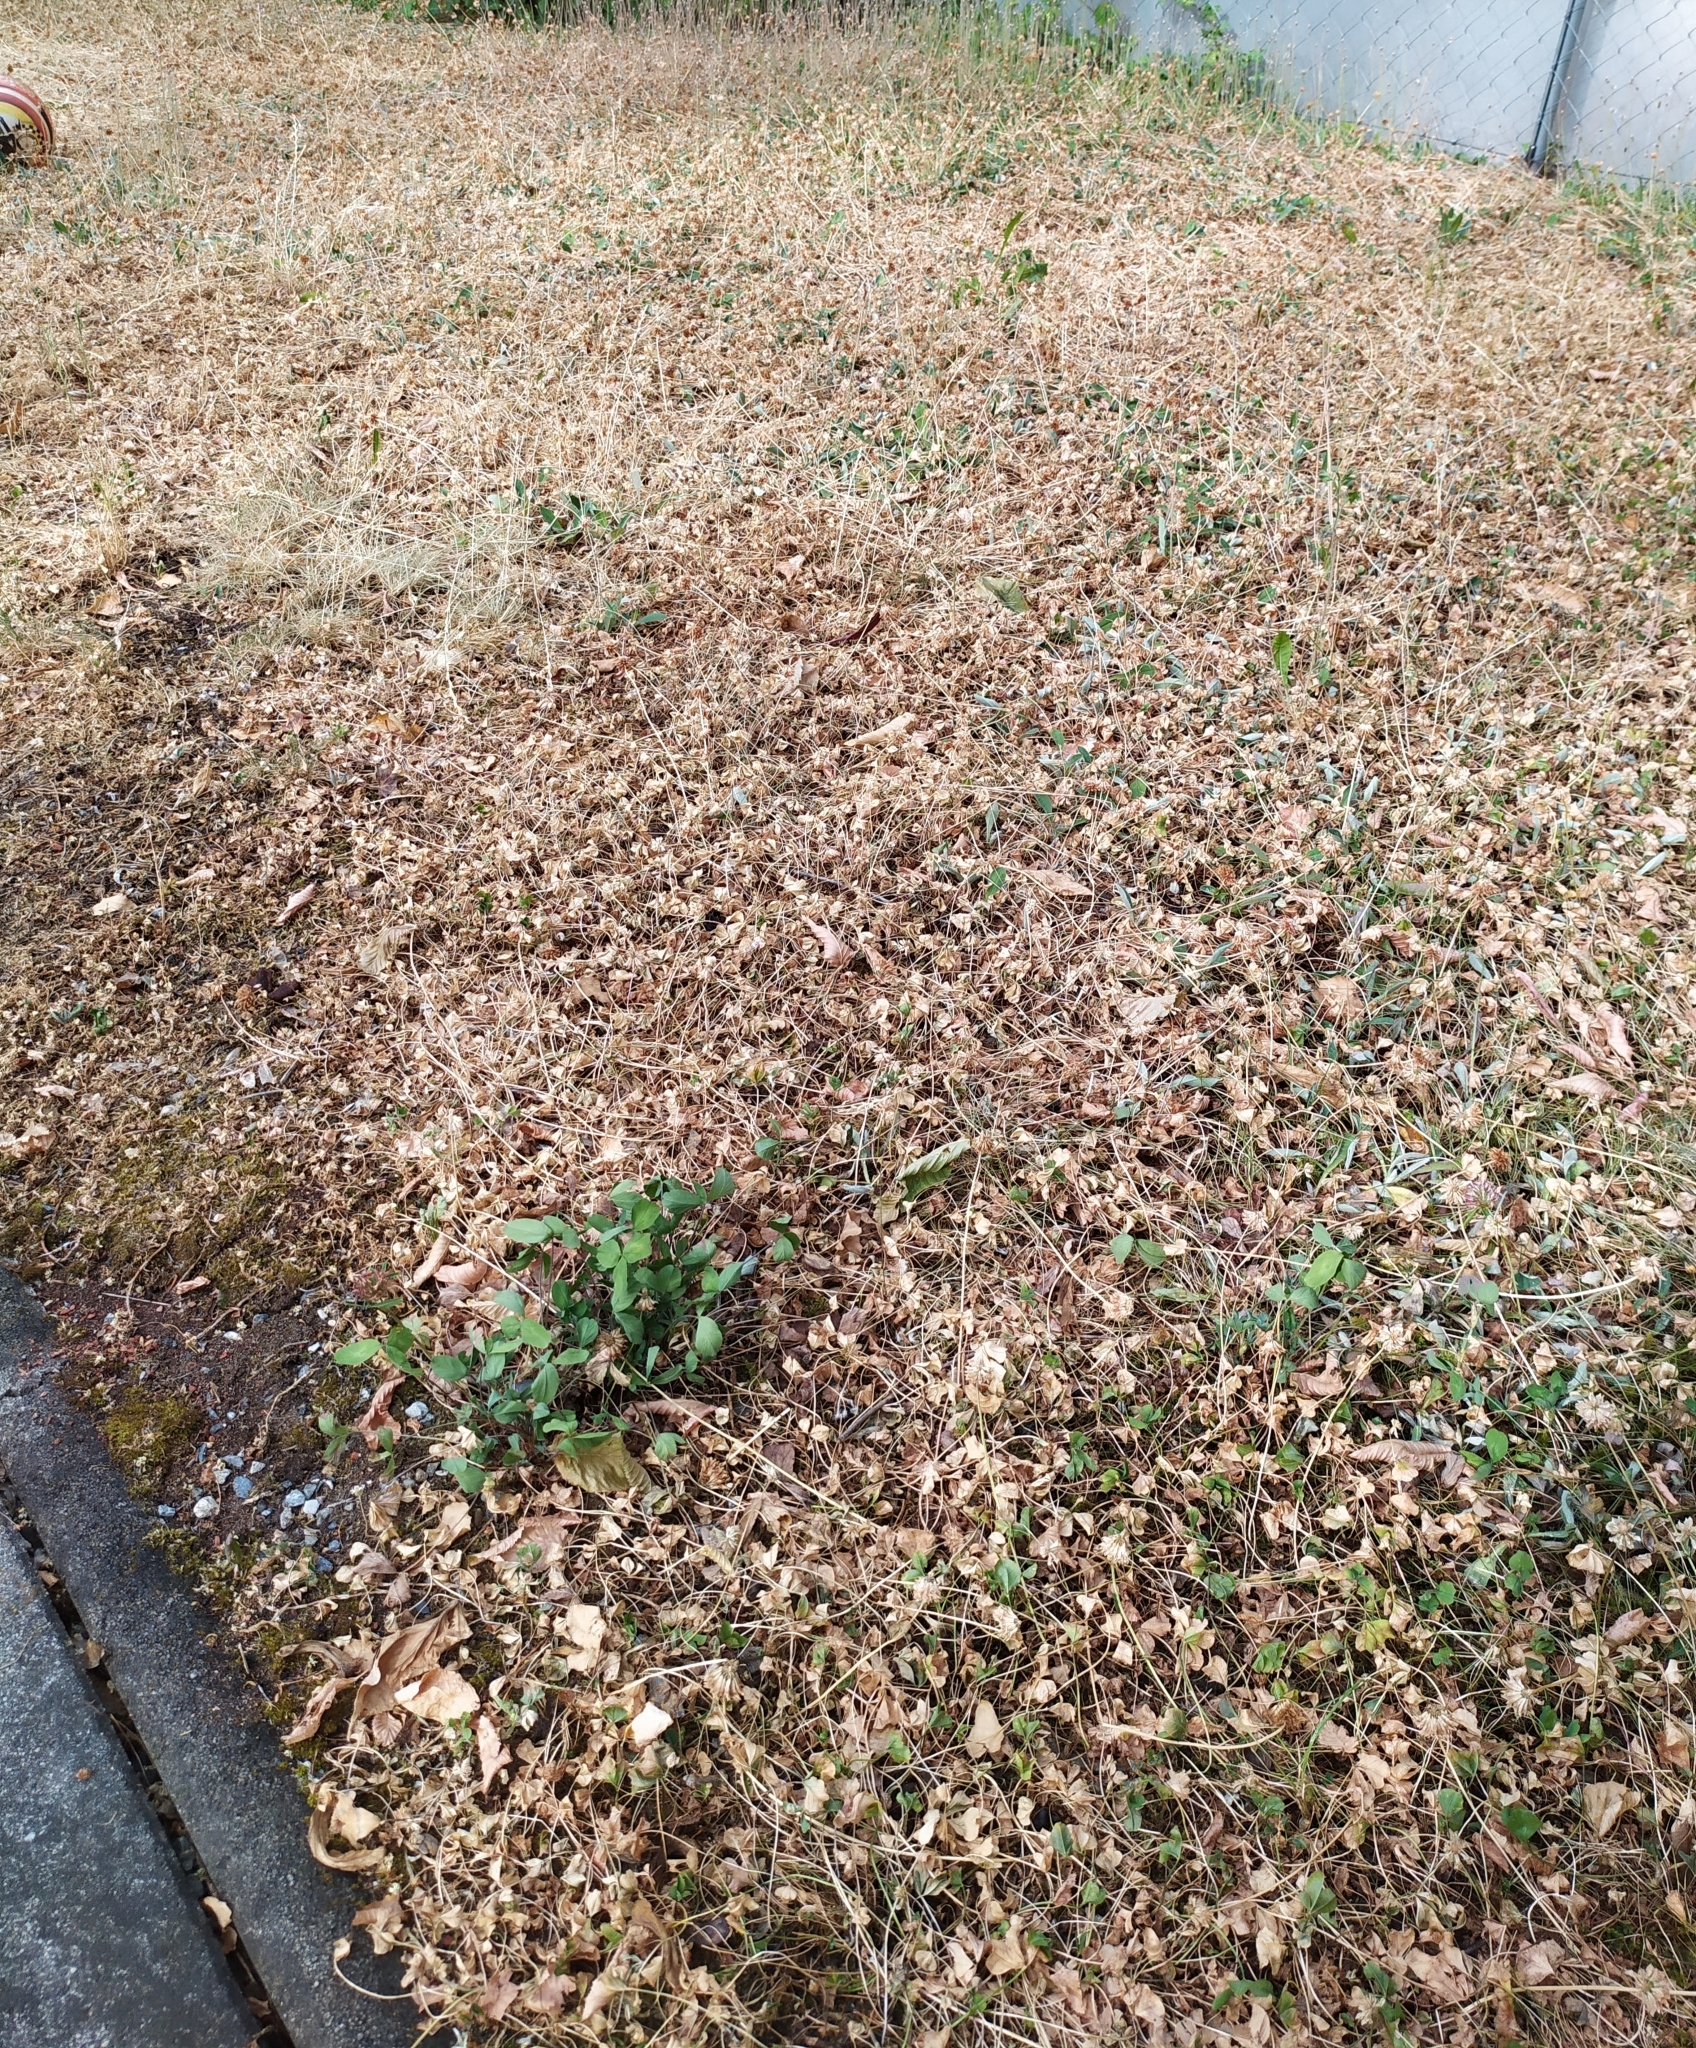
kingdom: Plantae
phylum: Tracheophyta
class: Magnoliopsida
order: Fabales
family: Fabaceae
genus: Trifolium
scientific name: Trifolium pratense
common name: Red clover
